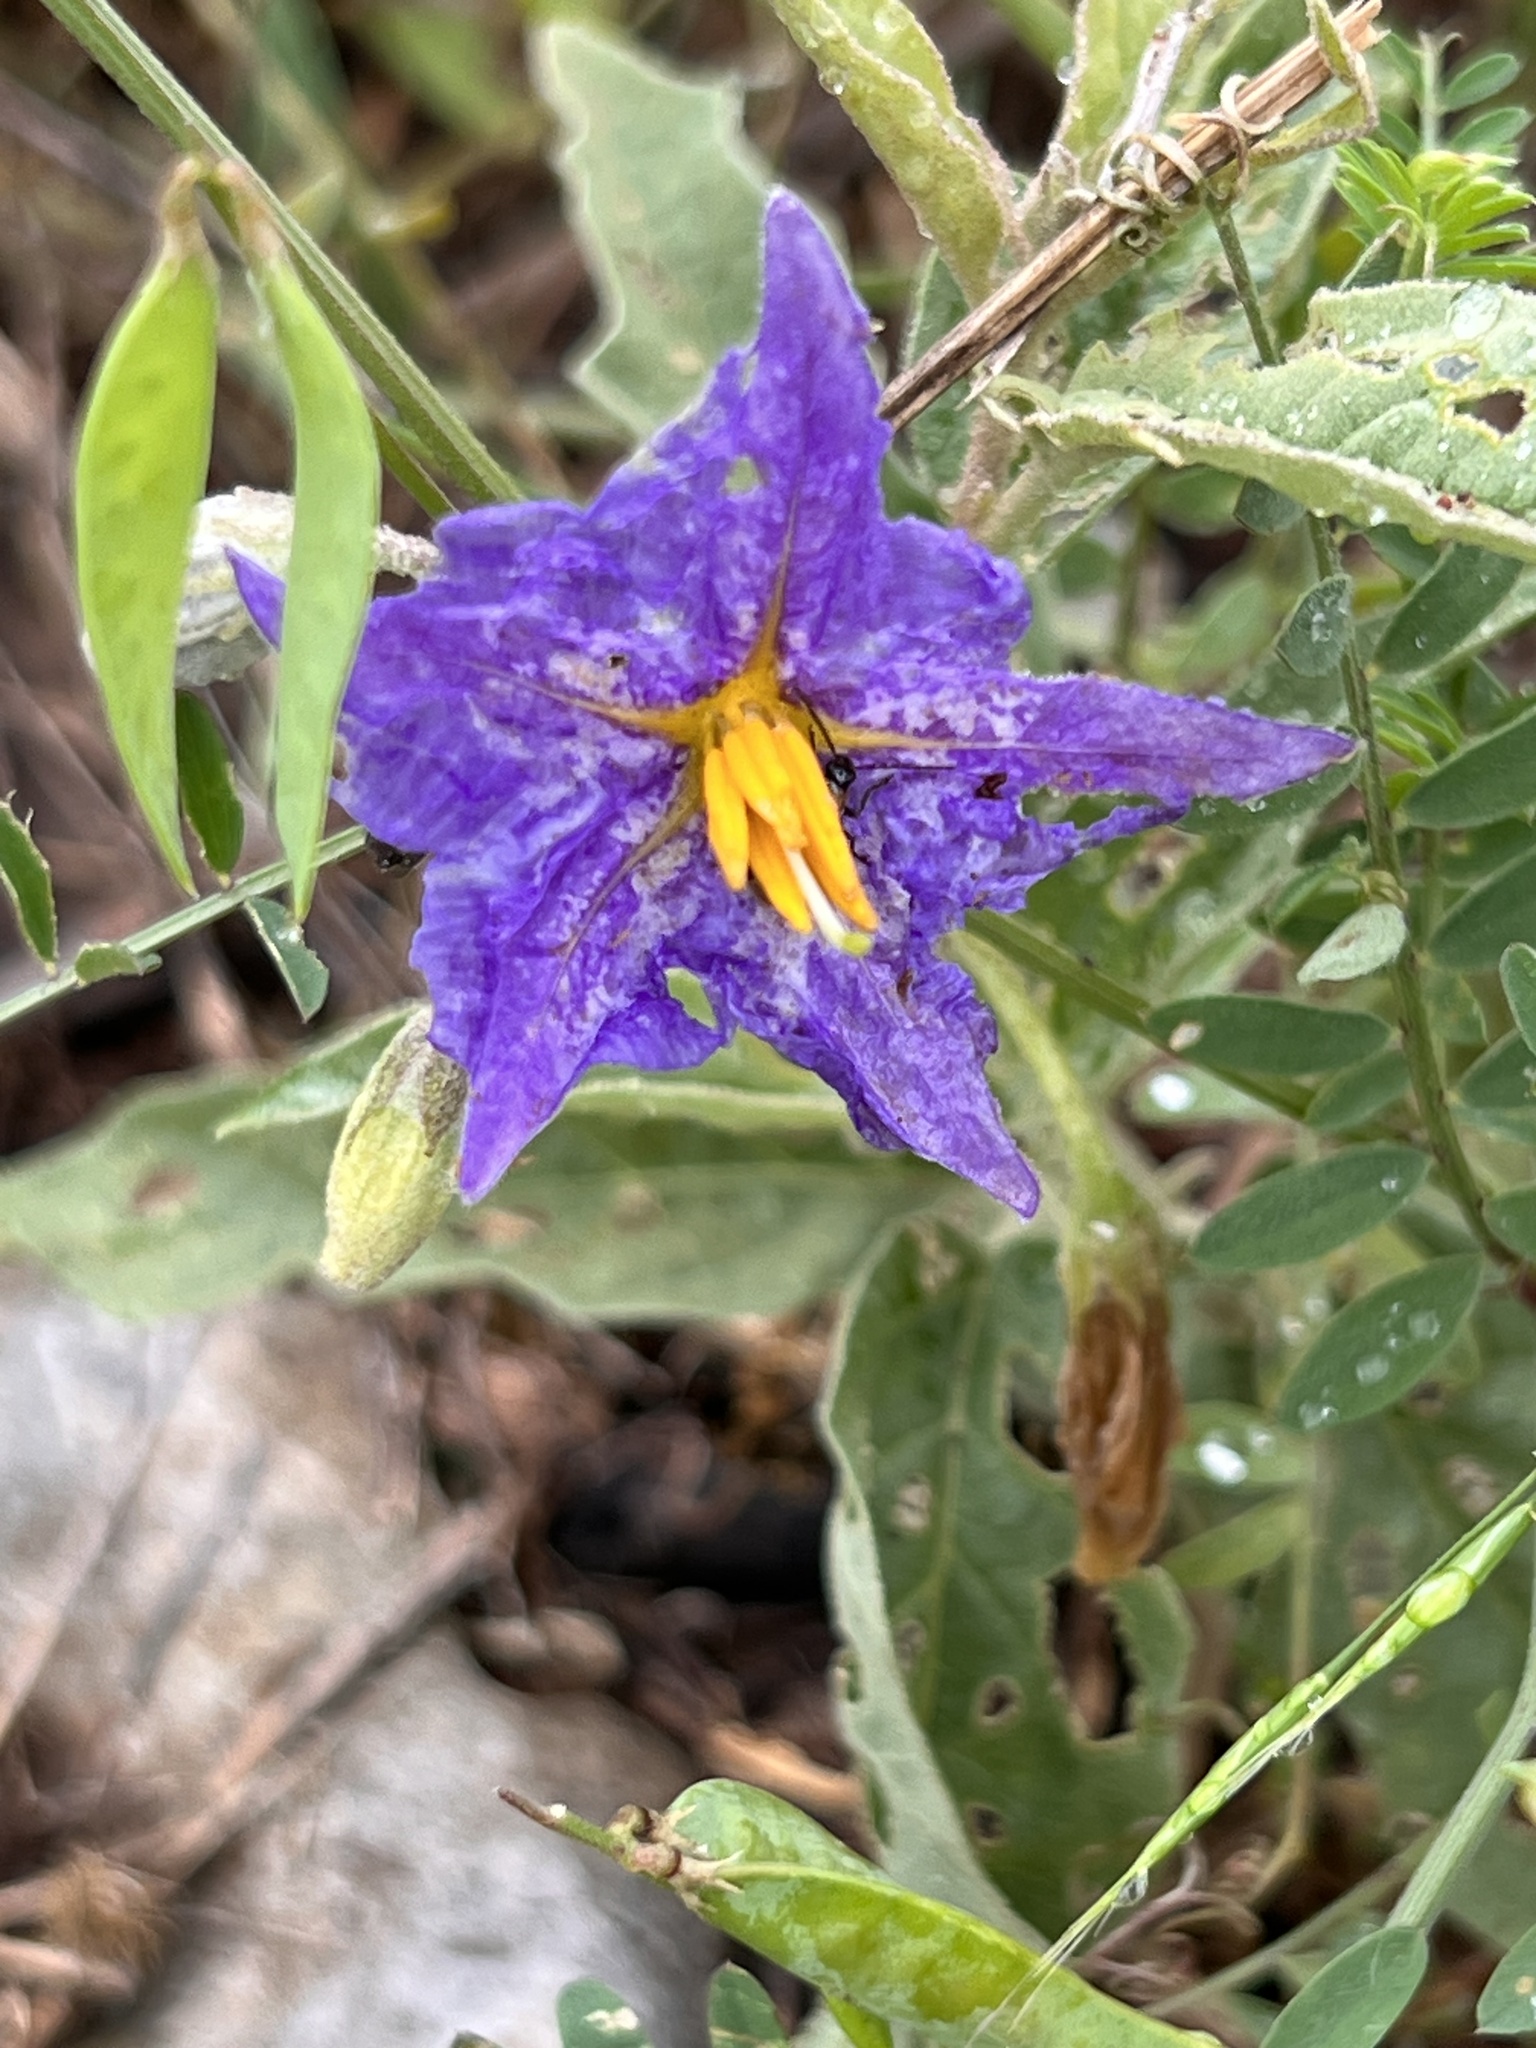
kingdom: Plantae
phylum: Tracheophyta
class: Magnoliopsida
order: Solanales
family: Solanaceae
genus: Solanum
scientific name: Solanum elaeagnifolium
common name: Silverleaf nightshade
